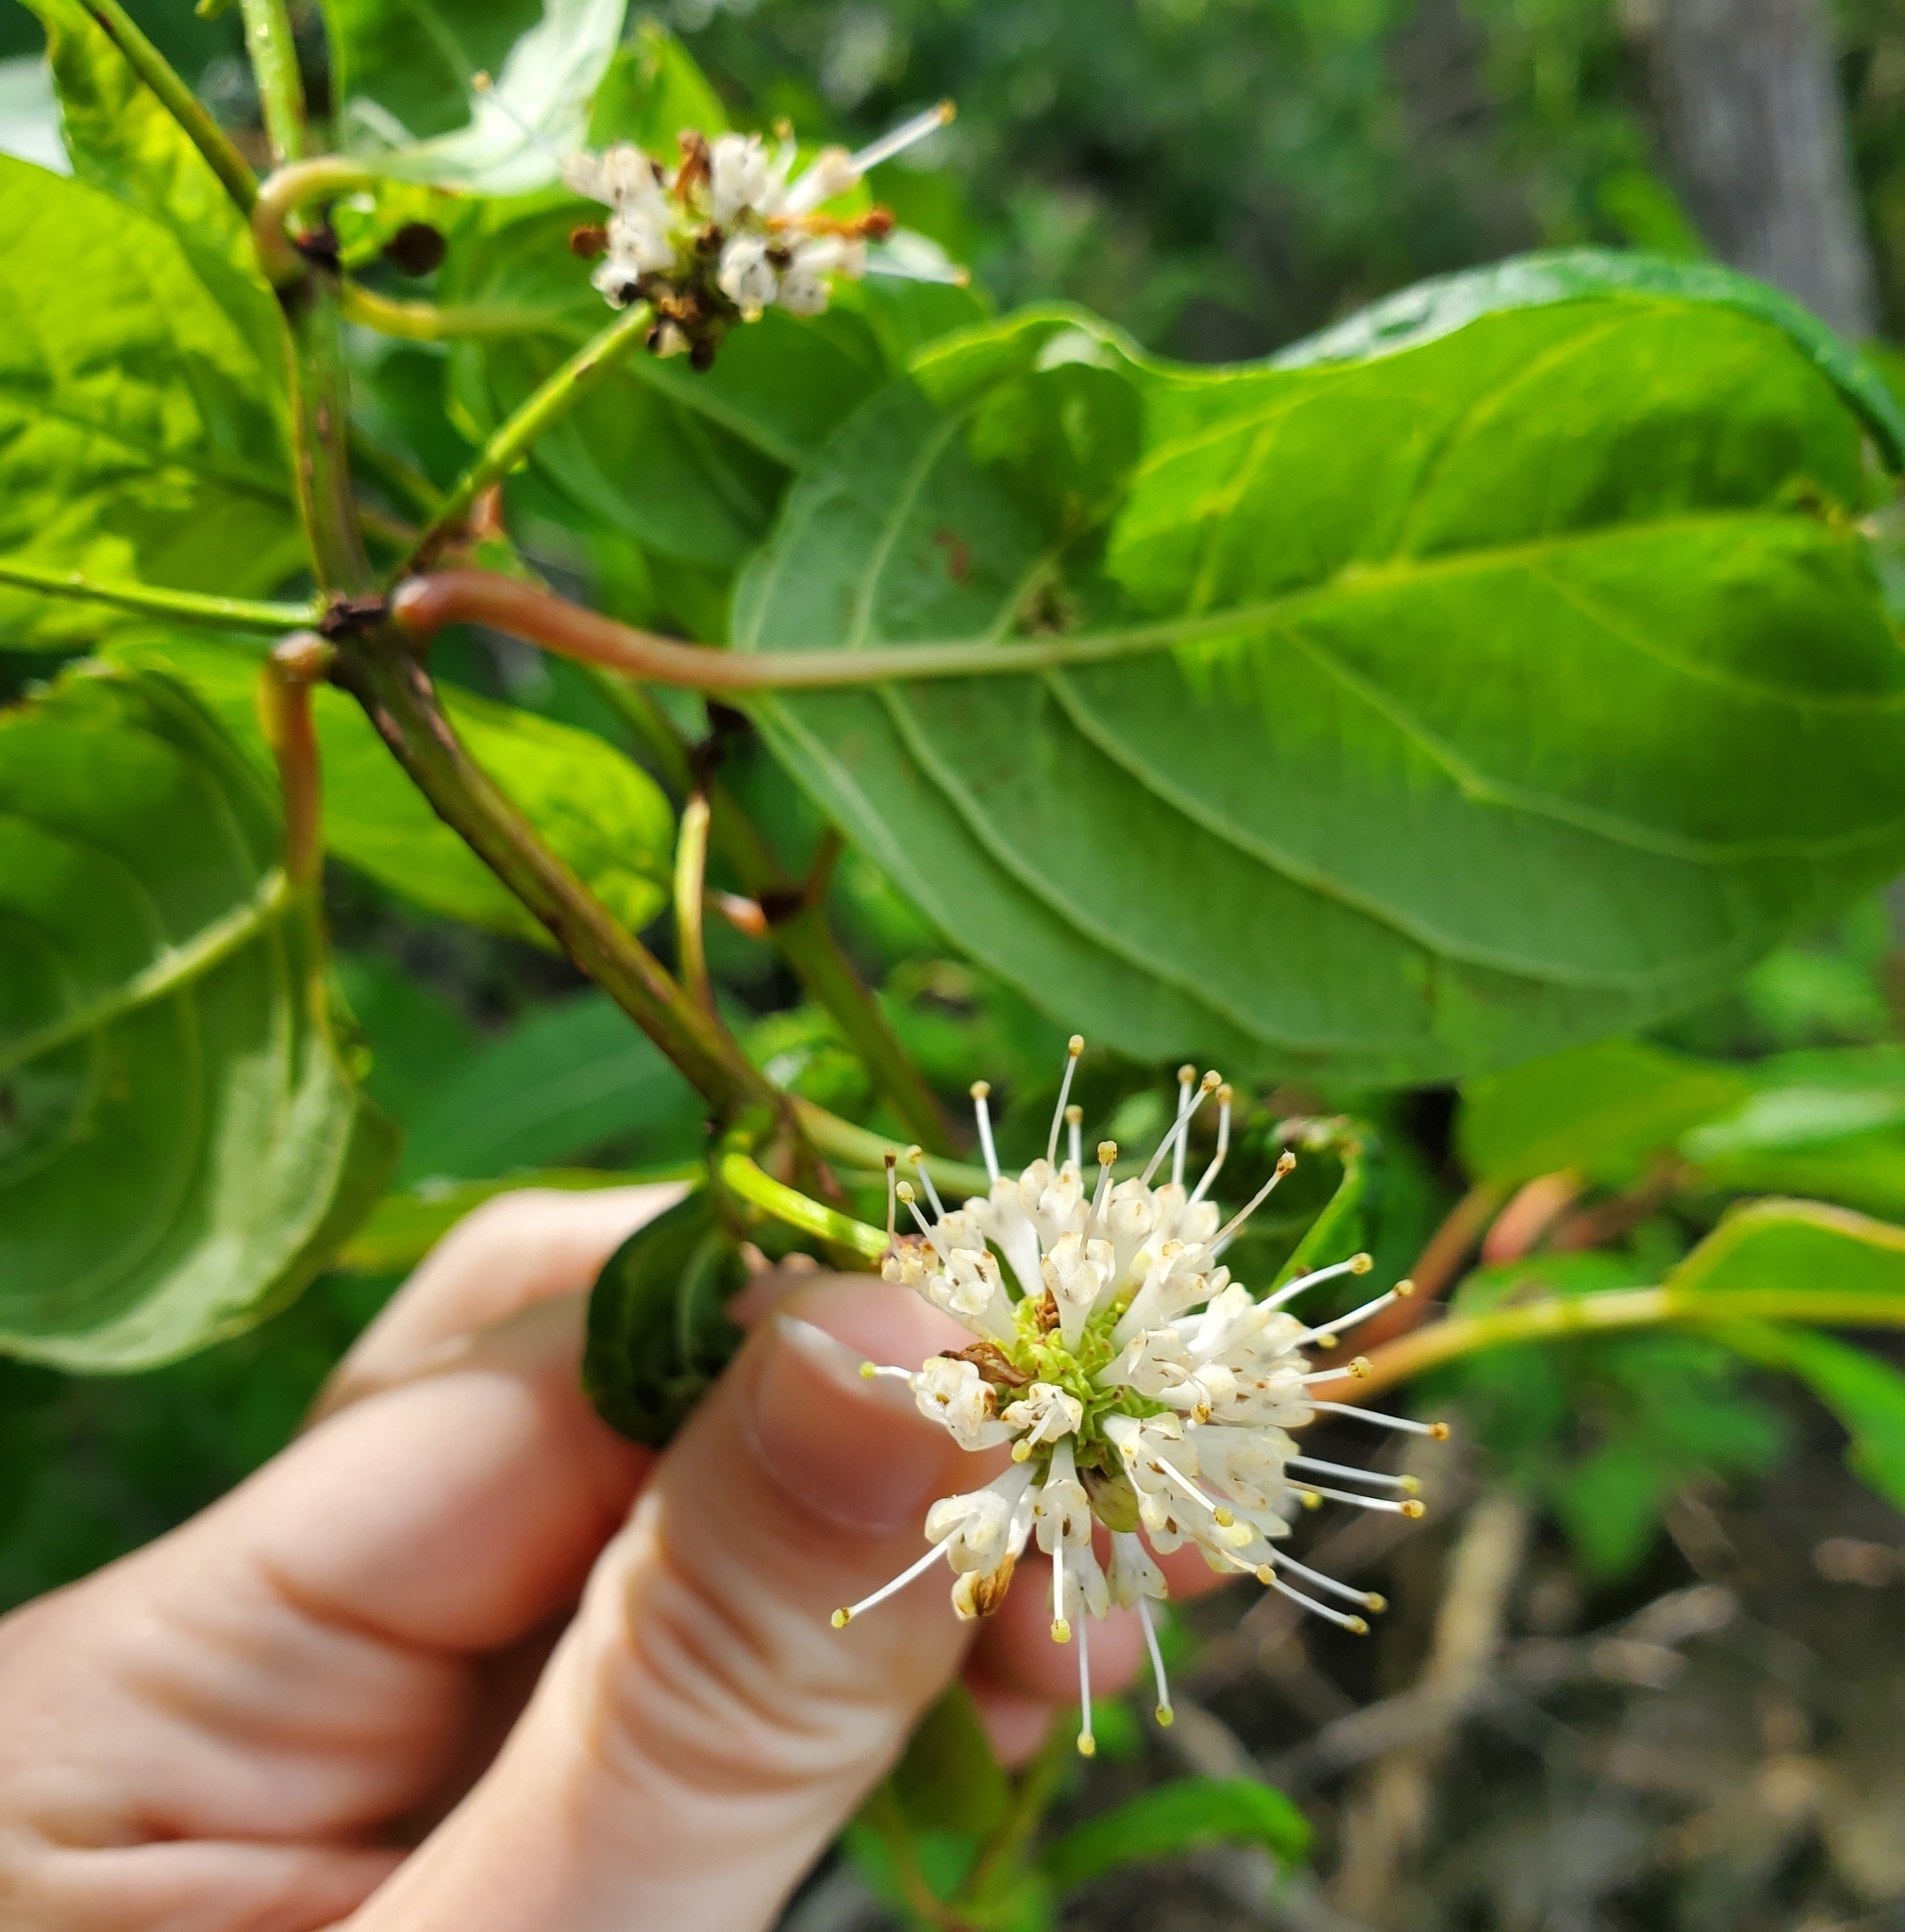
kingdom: Plantae
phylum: Tracheophyta
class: Magnoliopsida
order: Gentianales
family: Rubiaceae
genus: Cephalanthus
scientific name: Cephalanthus occidentalis
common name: Button-willow
